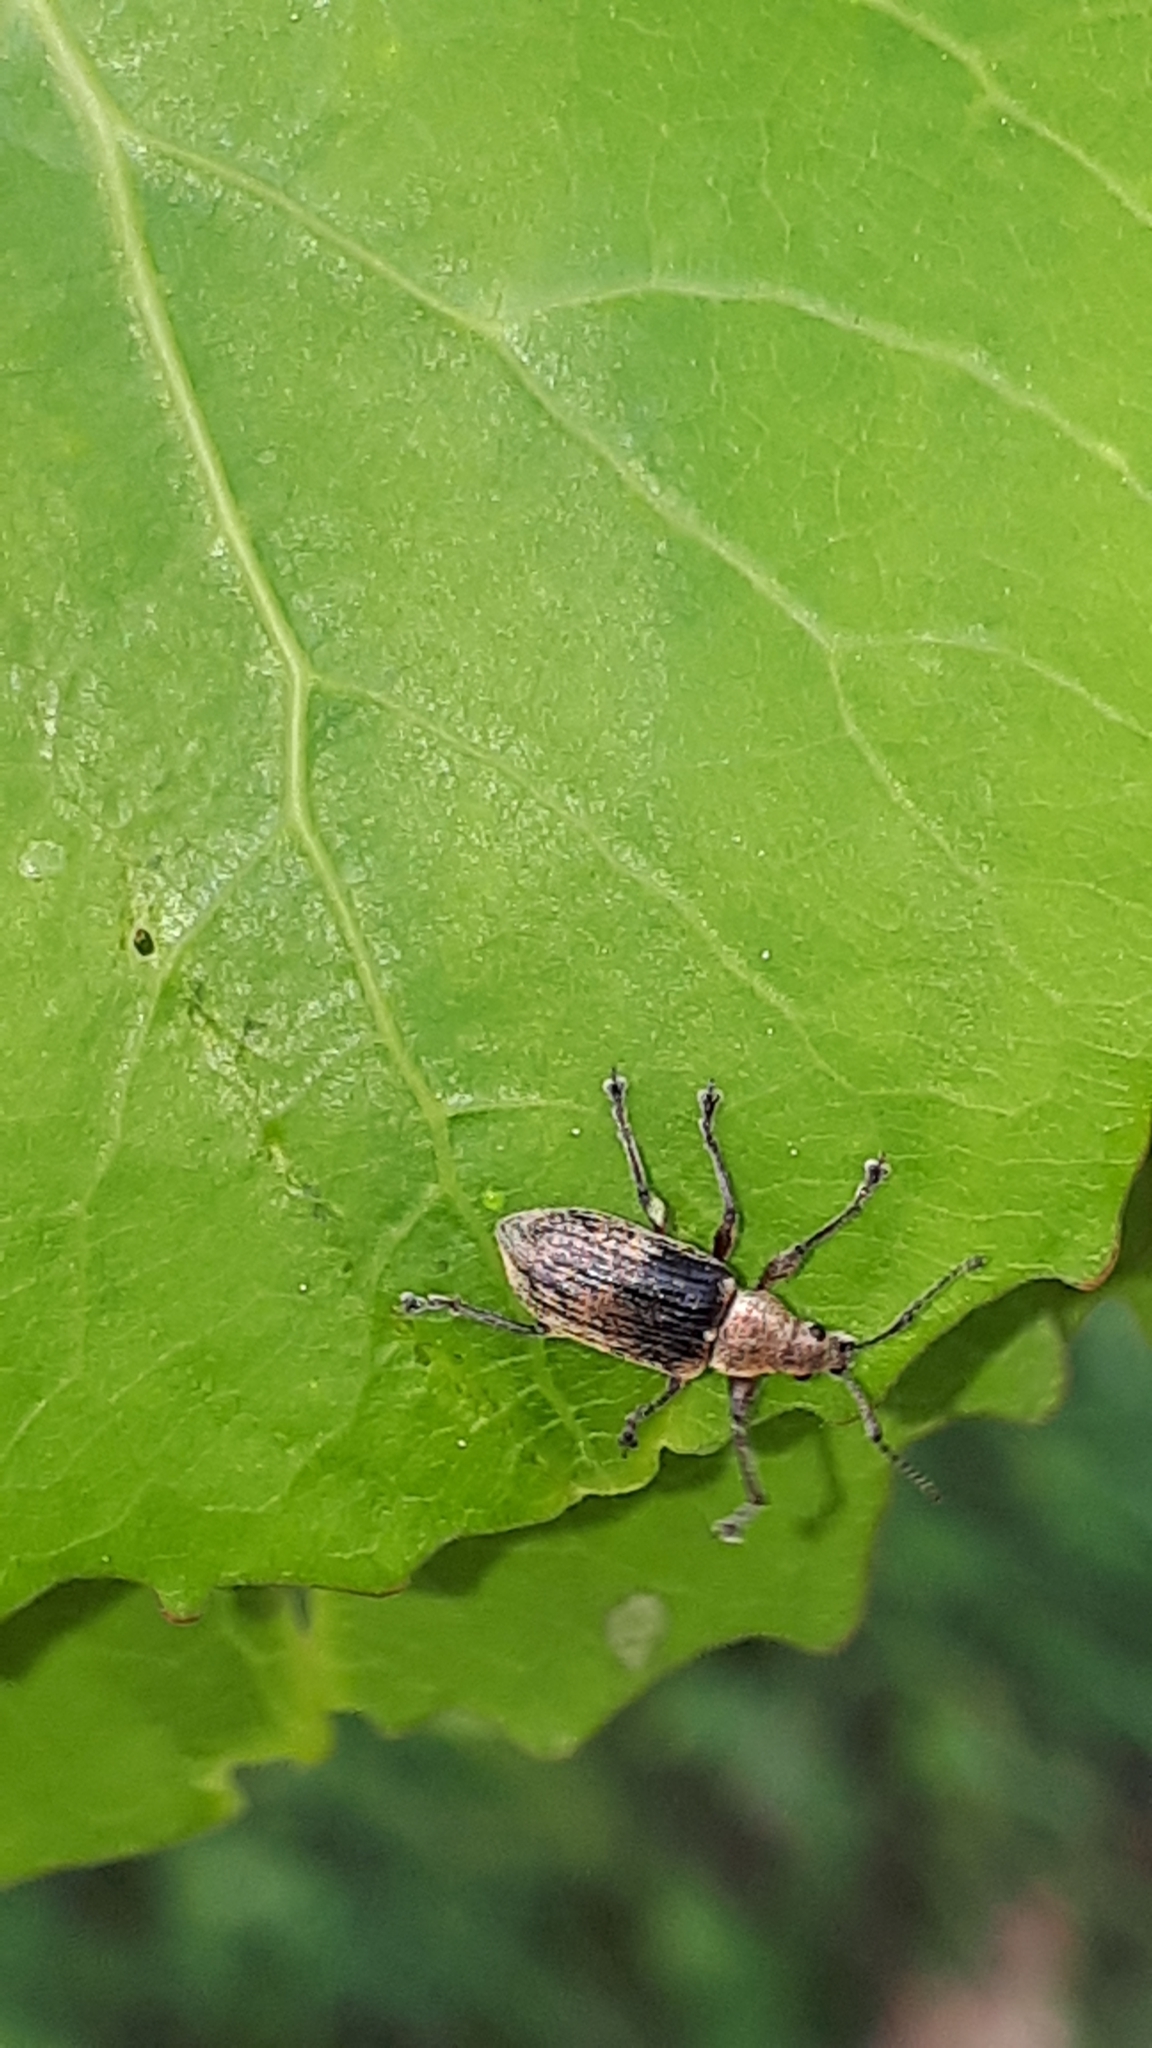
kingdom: Animalia
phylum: Arthropoda
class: Insecta
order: Coleoptera
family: Curculionidae
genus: Phyllobius
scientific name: Phyllobius pyri
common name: Common leaf weevil
